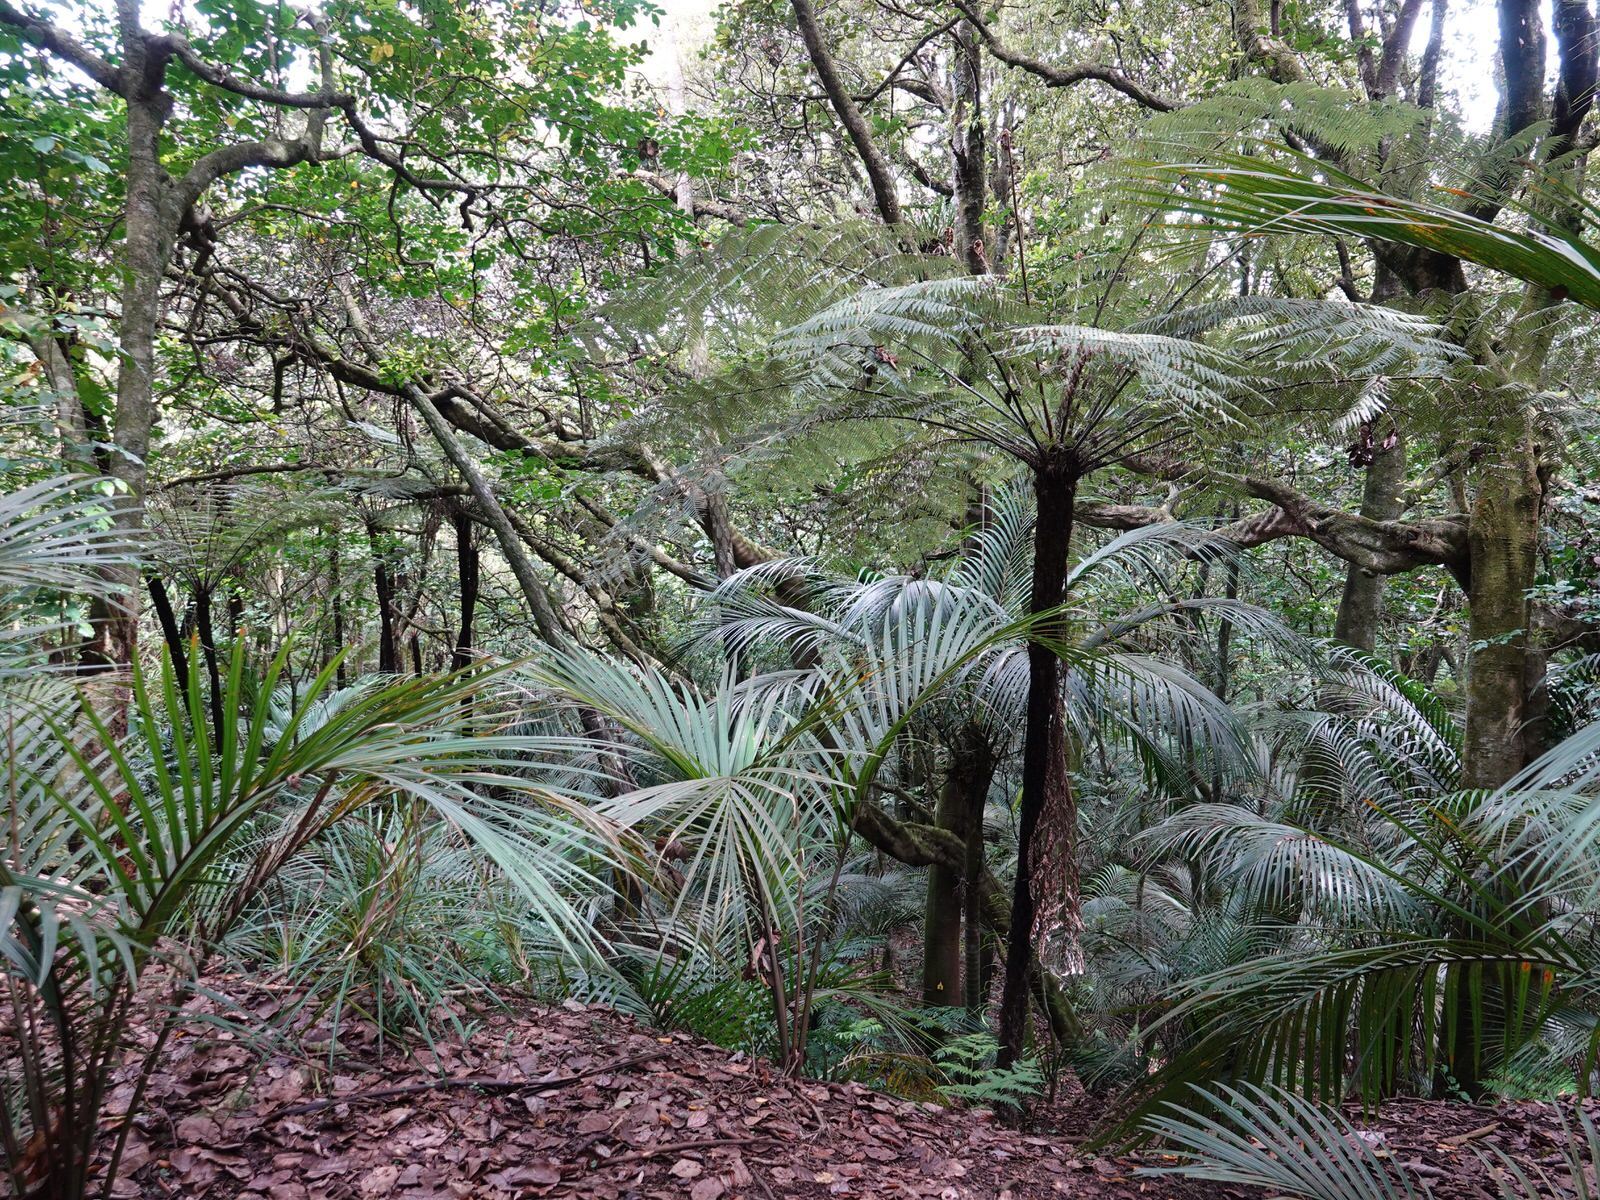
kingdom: Plantae
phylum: Tracheophyta
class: Liliopsida
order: Arecales
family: Arecaceae
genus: Rhopalostylis
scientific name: Rhopalostylis sapida
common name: Feather-duster palm
